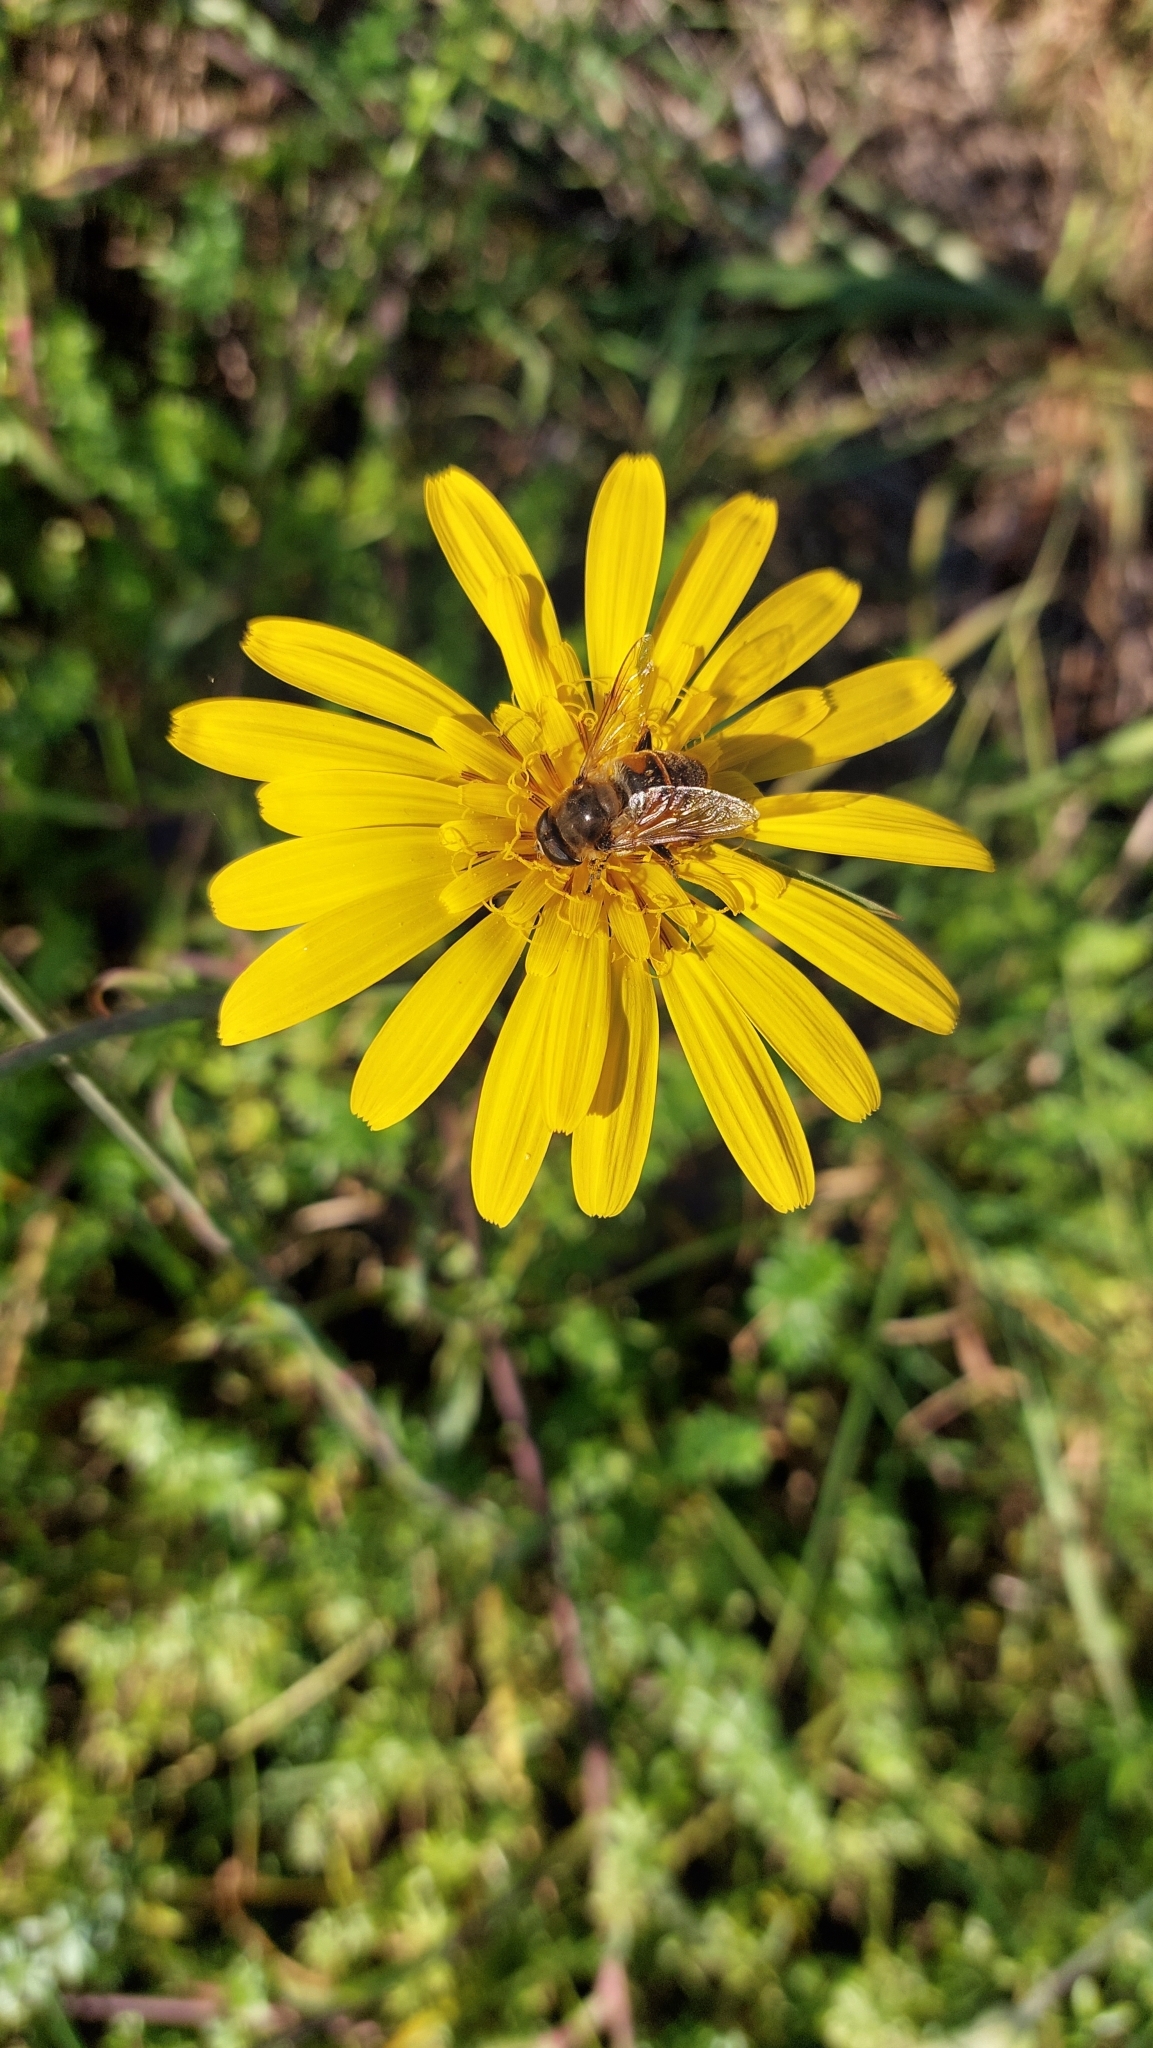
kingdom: Animalia
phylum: Arthropoda
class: Insecta
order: Diptera
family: Syrphidae
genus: Eristalis
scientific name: Eristalis tenax
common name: Drone fly
